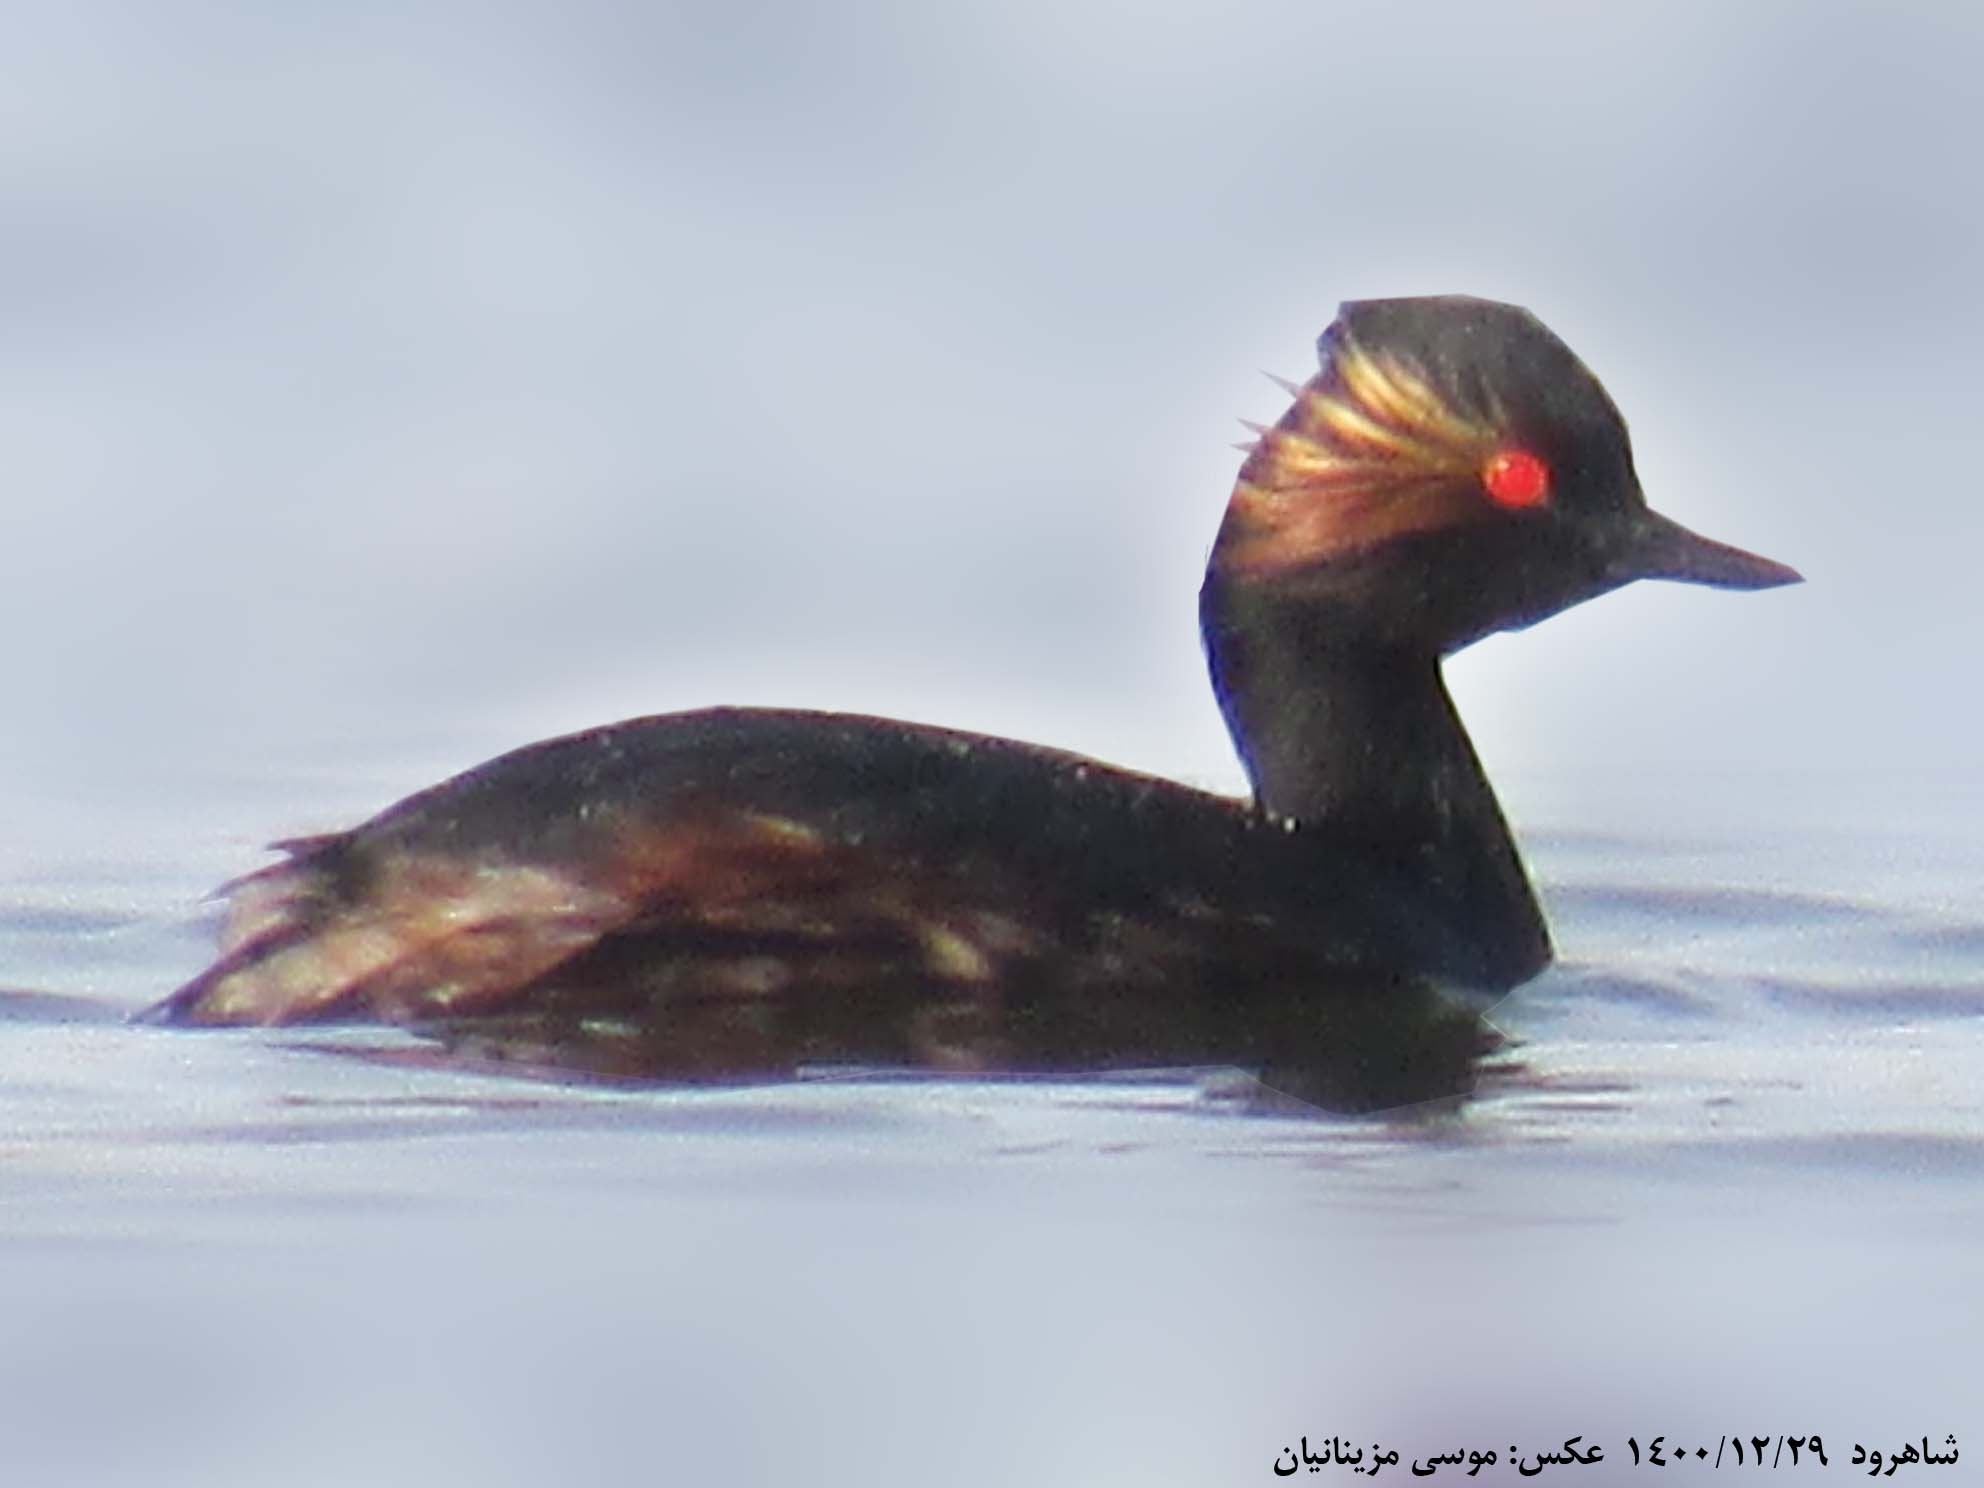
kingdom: Animalia
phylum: Chordata
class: Aves
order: Podicipediformes
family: Podicipedidae
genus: Podiceps
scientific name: Podiceps nigricollis
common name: Black-necked grebe
